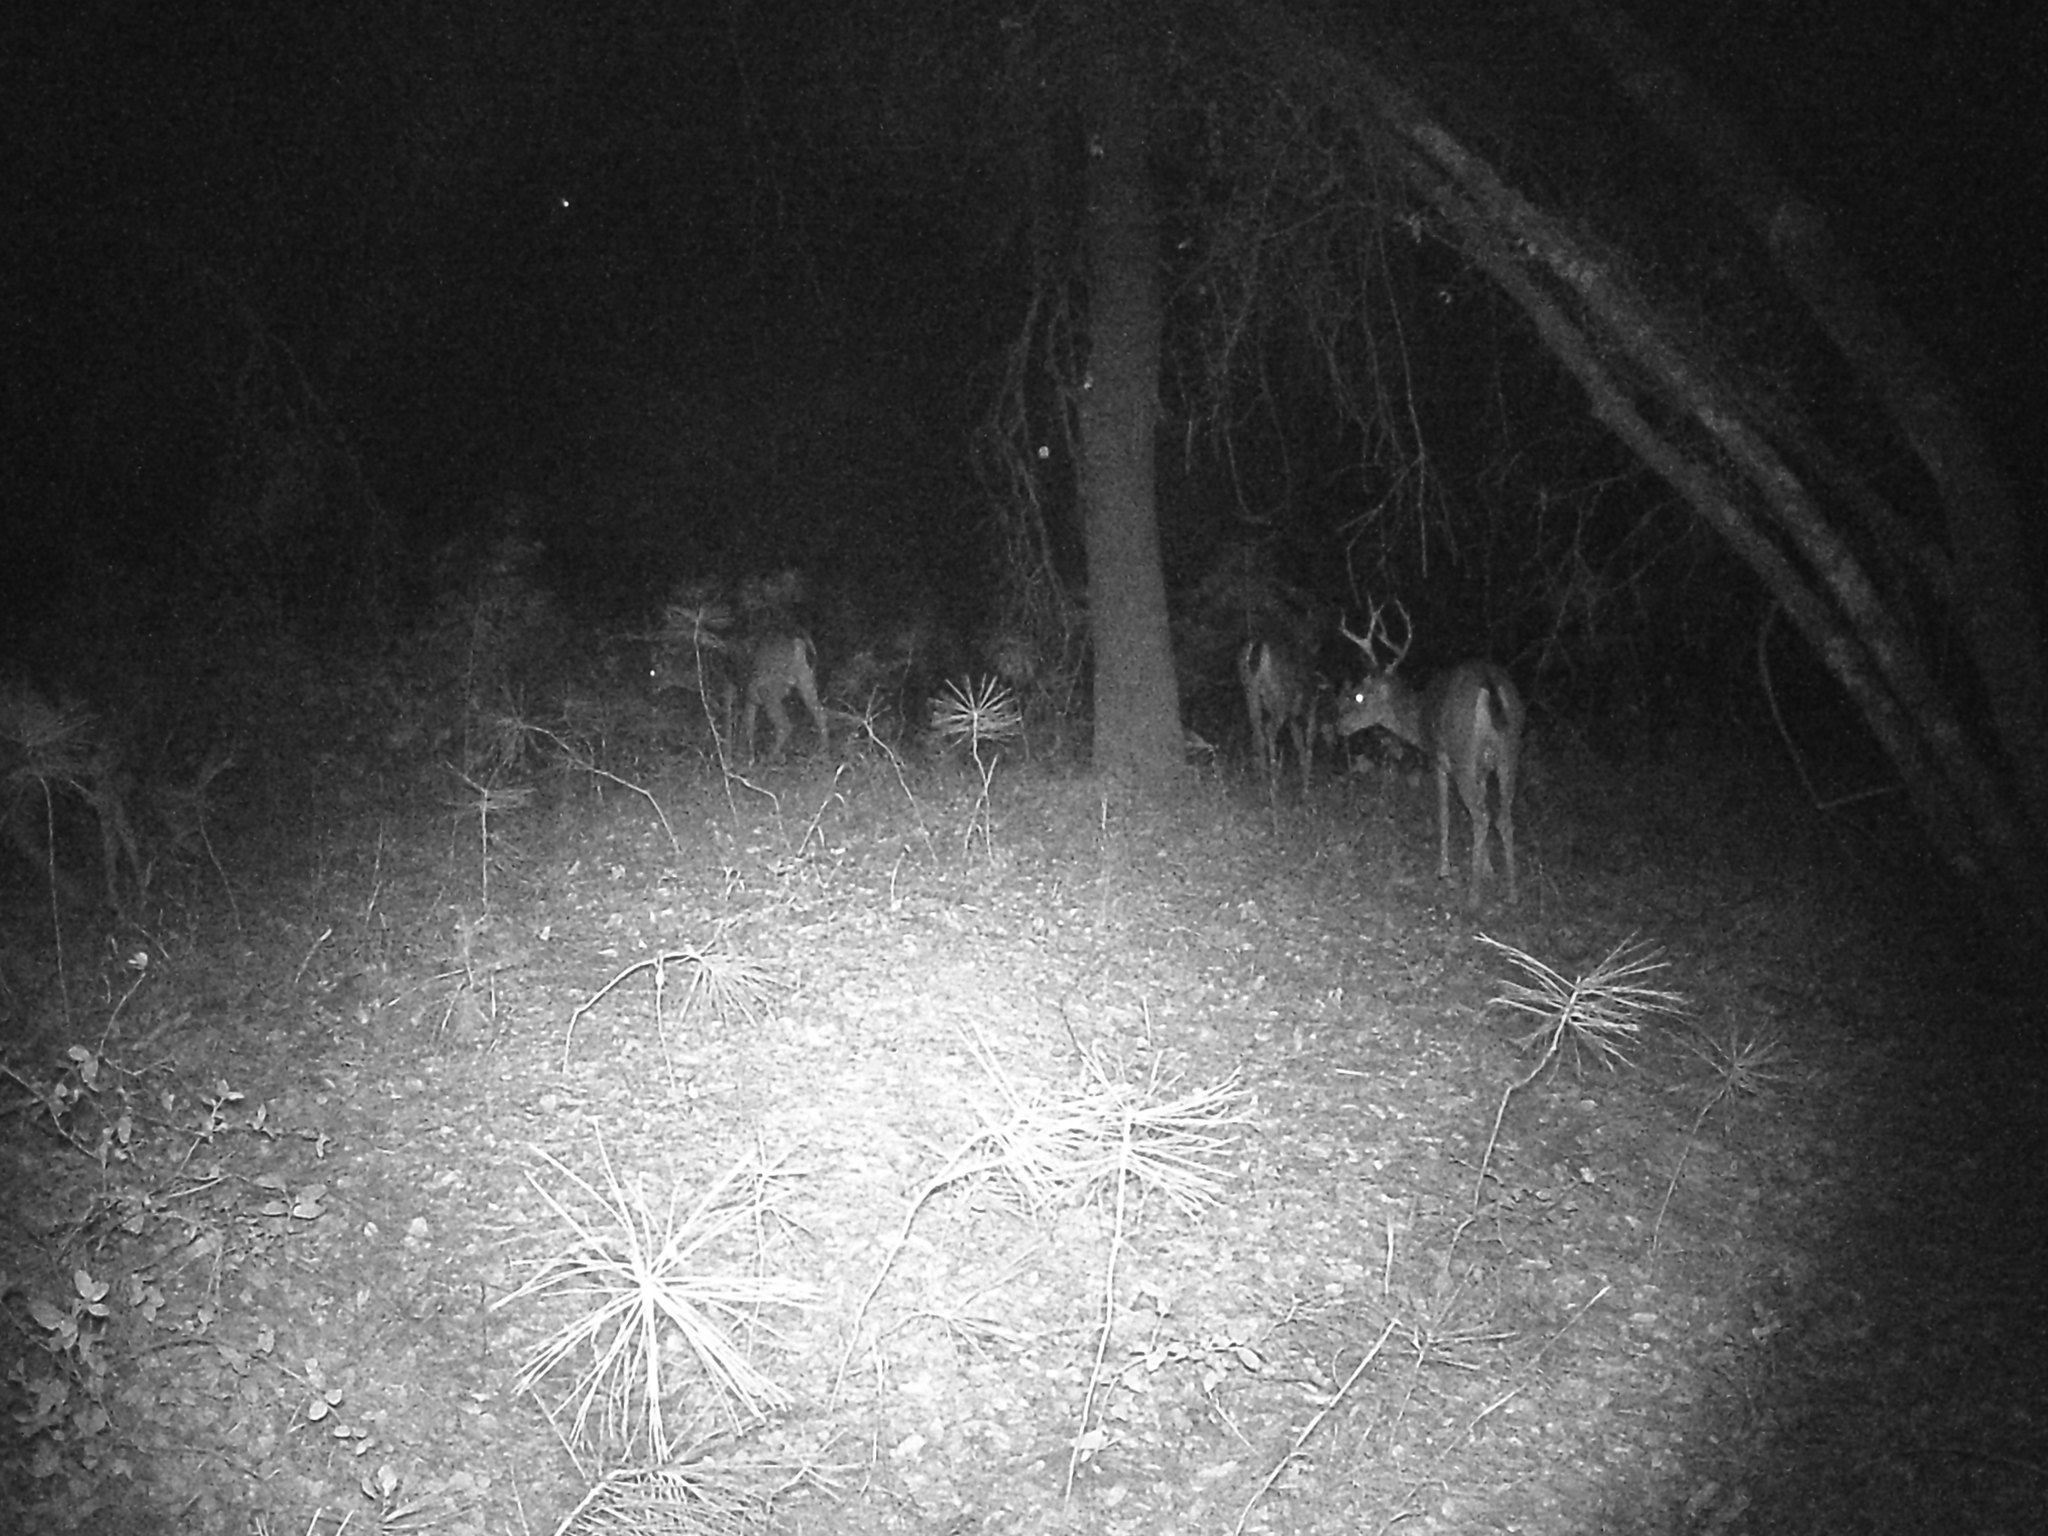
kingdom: Animalia
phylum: Chordata
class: Mammalia
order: Artiodactyla
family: Cervidae
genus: Odocoileus
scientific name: Odocoileus hemionus
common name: Mule deer
